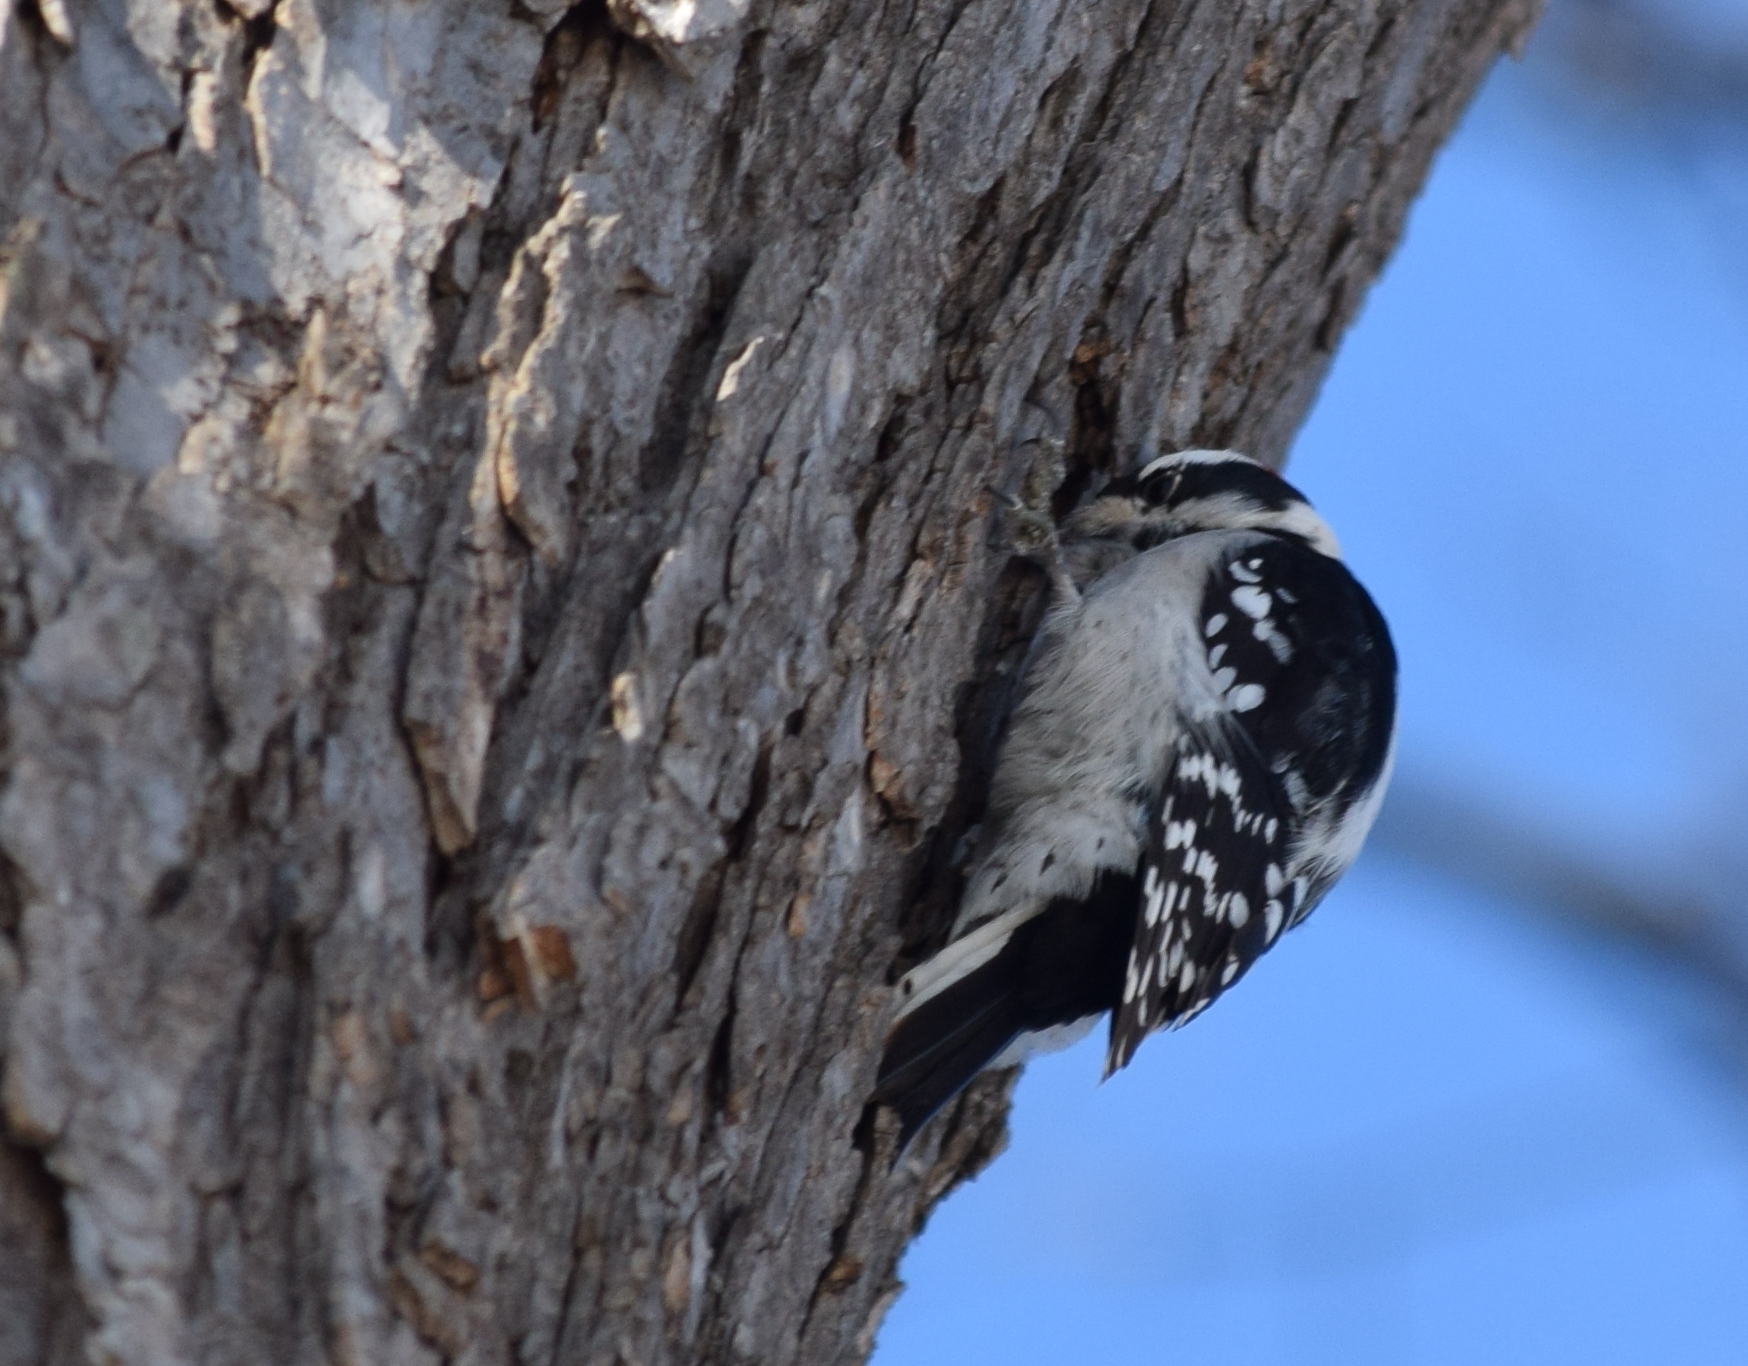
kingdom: Animalia
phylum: Chordata
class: Aves
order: Piciformes
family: Picidae
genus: Dryobates
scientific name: Dryobates pubescens
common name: Downy woodpecker
